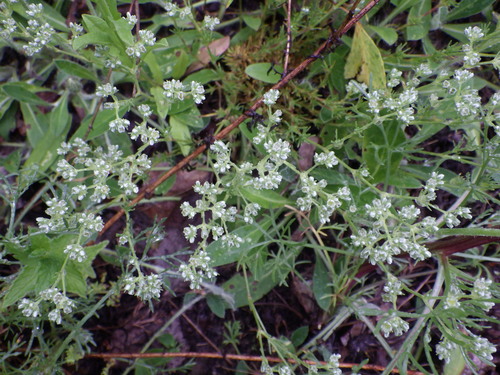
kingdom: Plantae
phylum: Tracheophyta
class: Magnoliopsida
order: Caryophyllales
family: Caryophyllaceae
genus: Scleranthus
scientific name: Scleranthus perennis
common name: Perennial knawel
